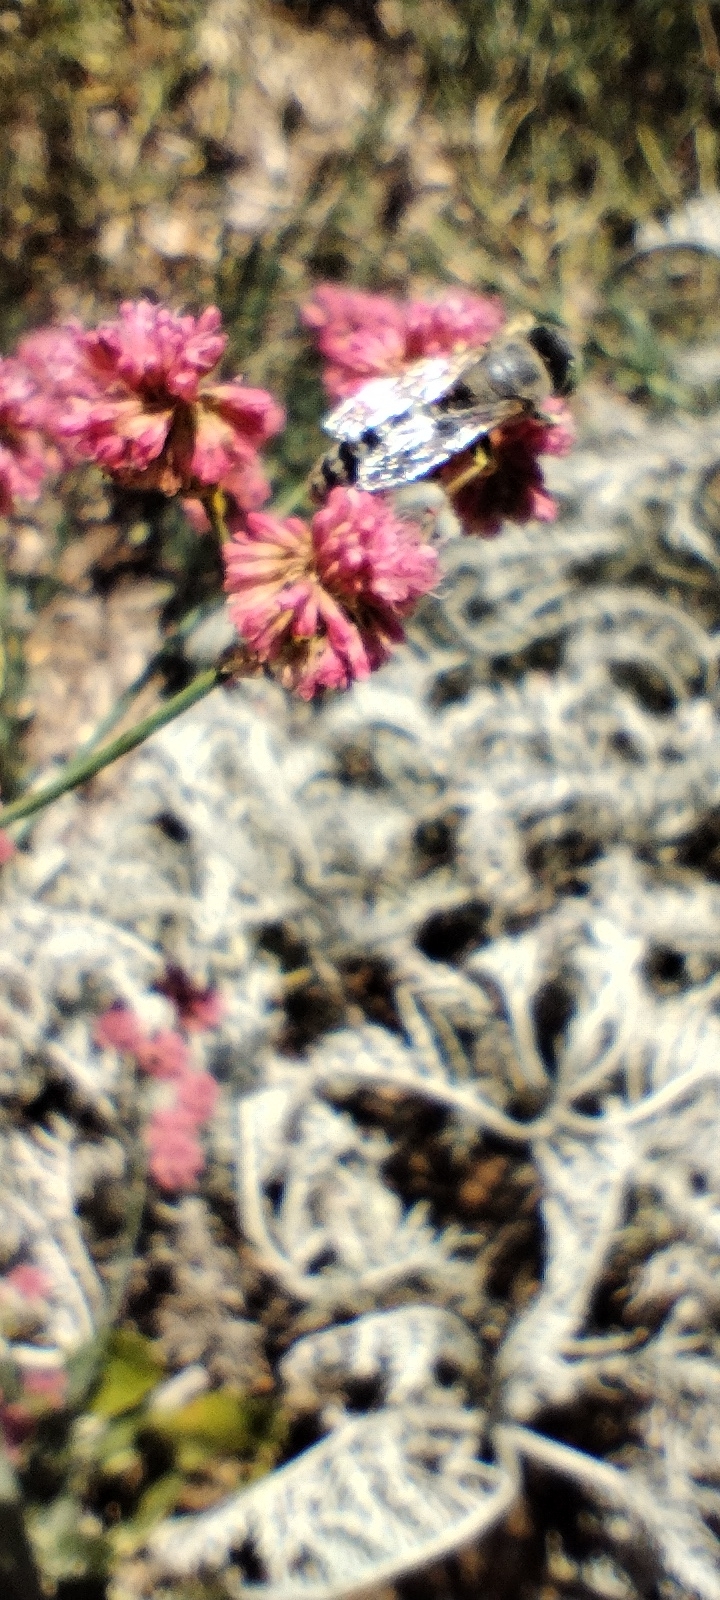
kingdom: Animalia
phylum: Arthropoda
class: Insecta
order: Hymenoptera
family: Crabronidae
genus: Bembix
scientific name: Bembix americana
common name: American sand wasp
